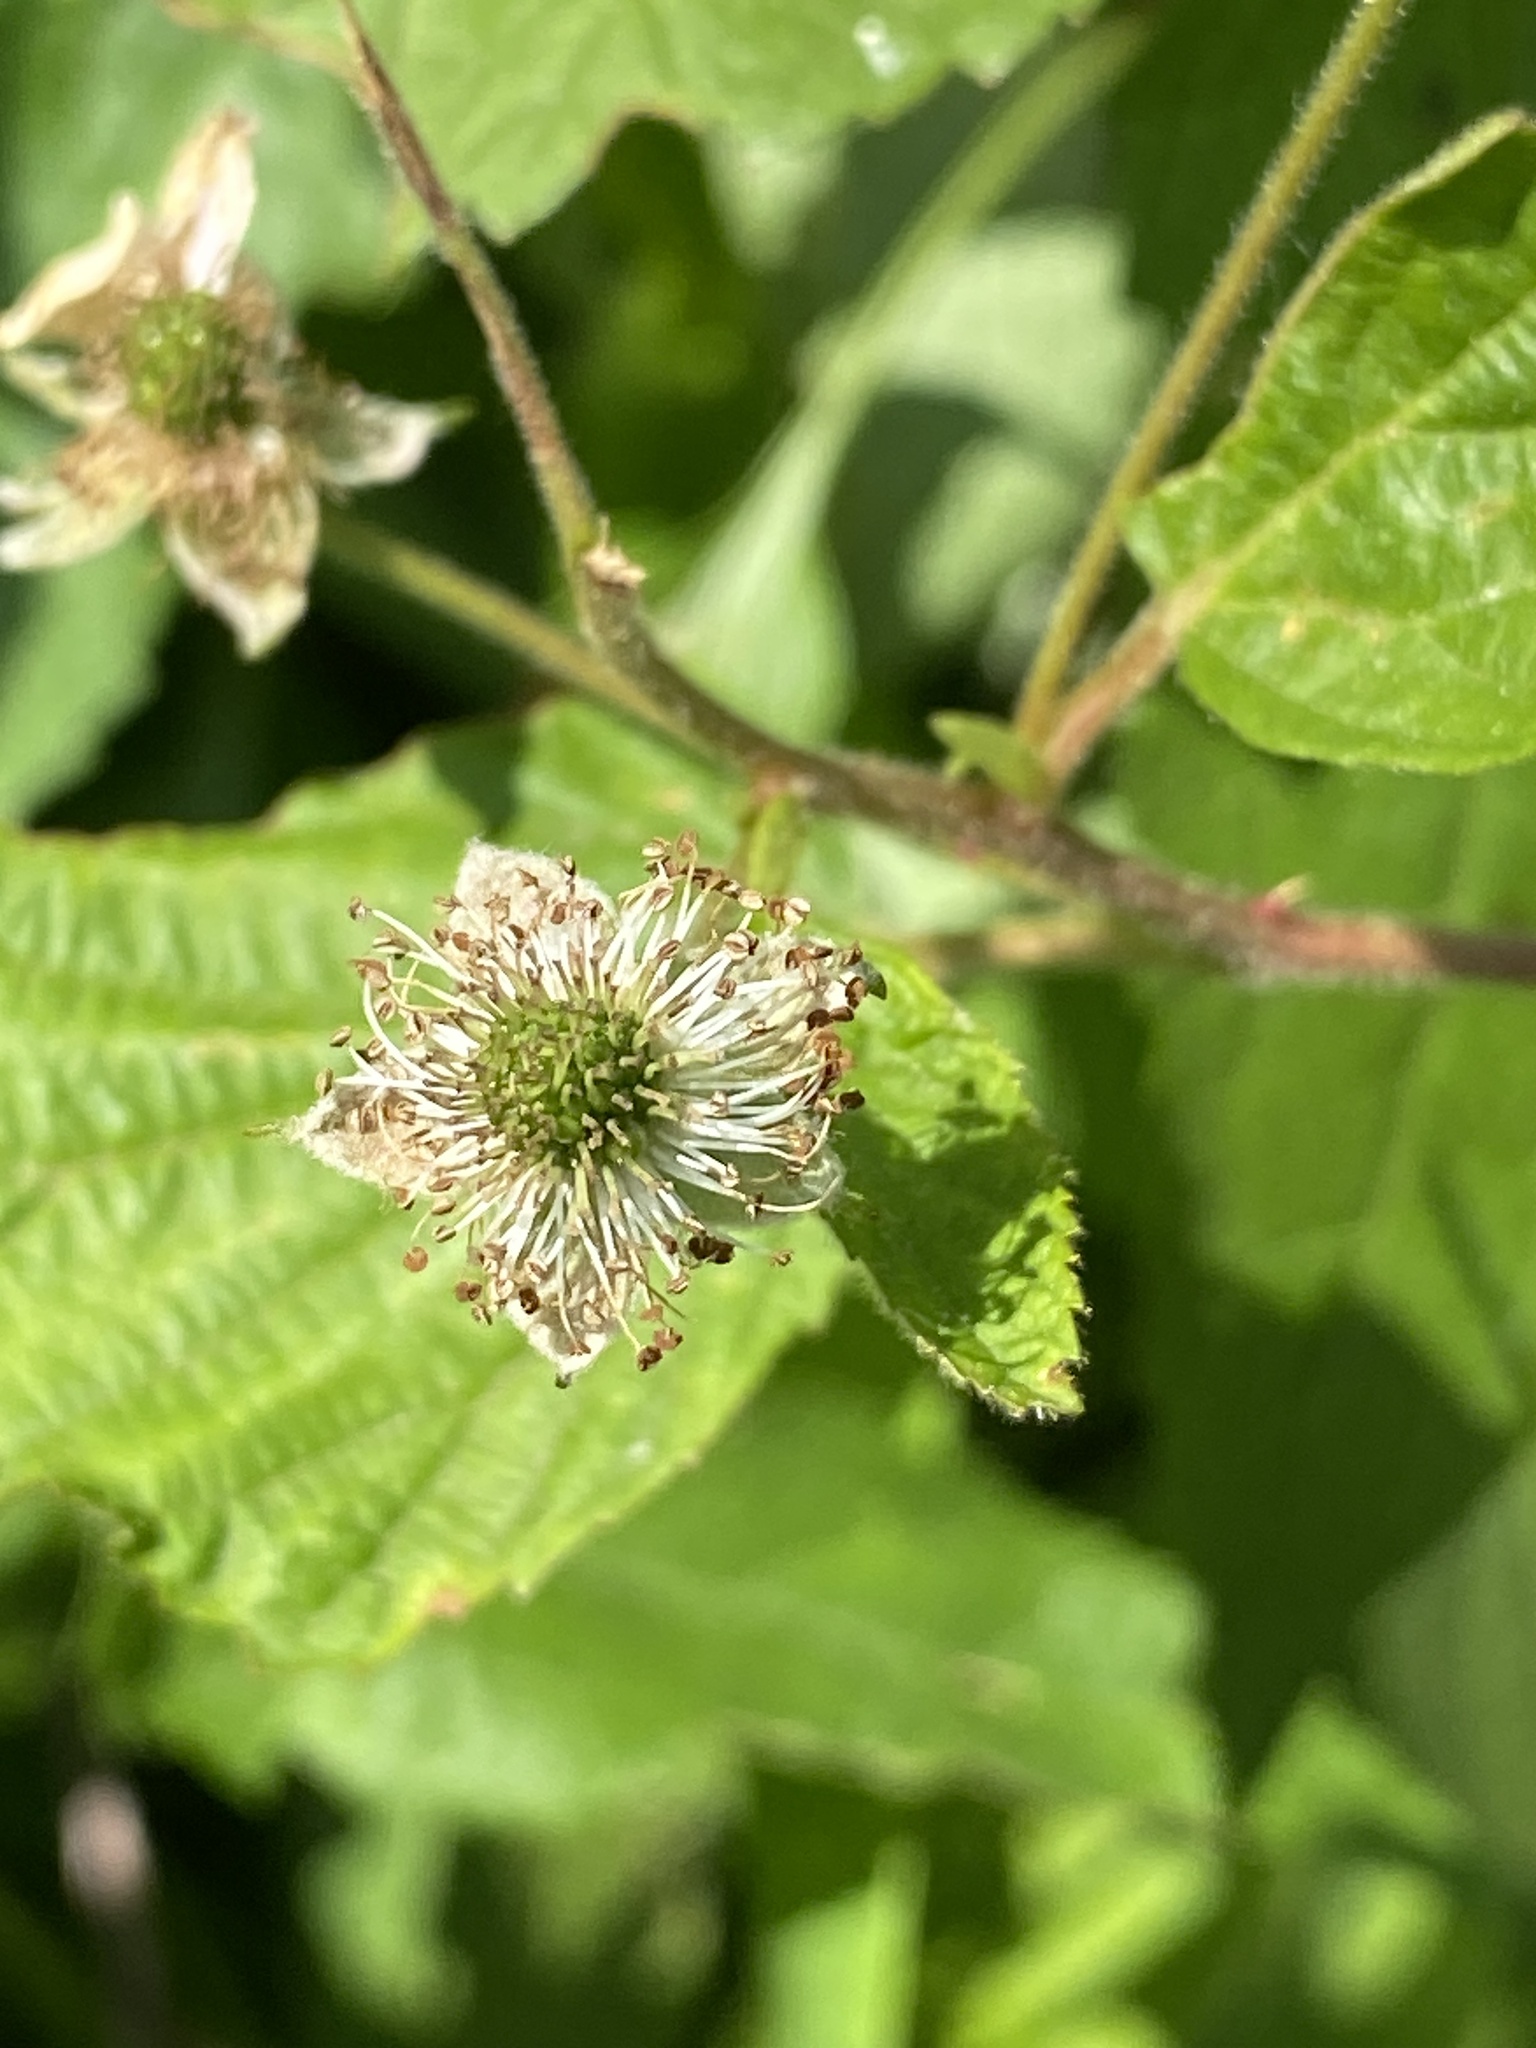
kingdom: Plantae
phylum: Tracheophyta
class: Magnoliopsida
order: Rosales
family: Rosaceae
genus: Rubus
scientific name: Rubus allegheniensis
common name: Allegheny blackberry
